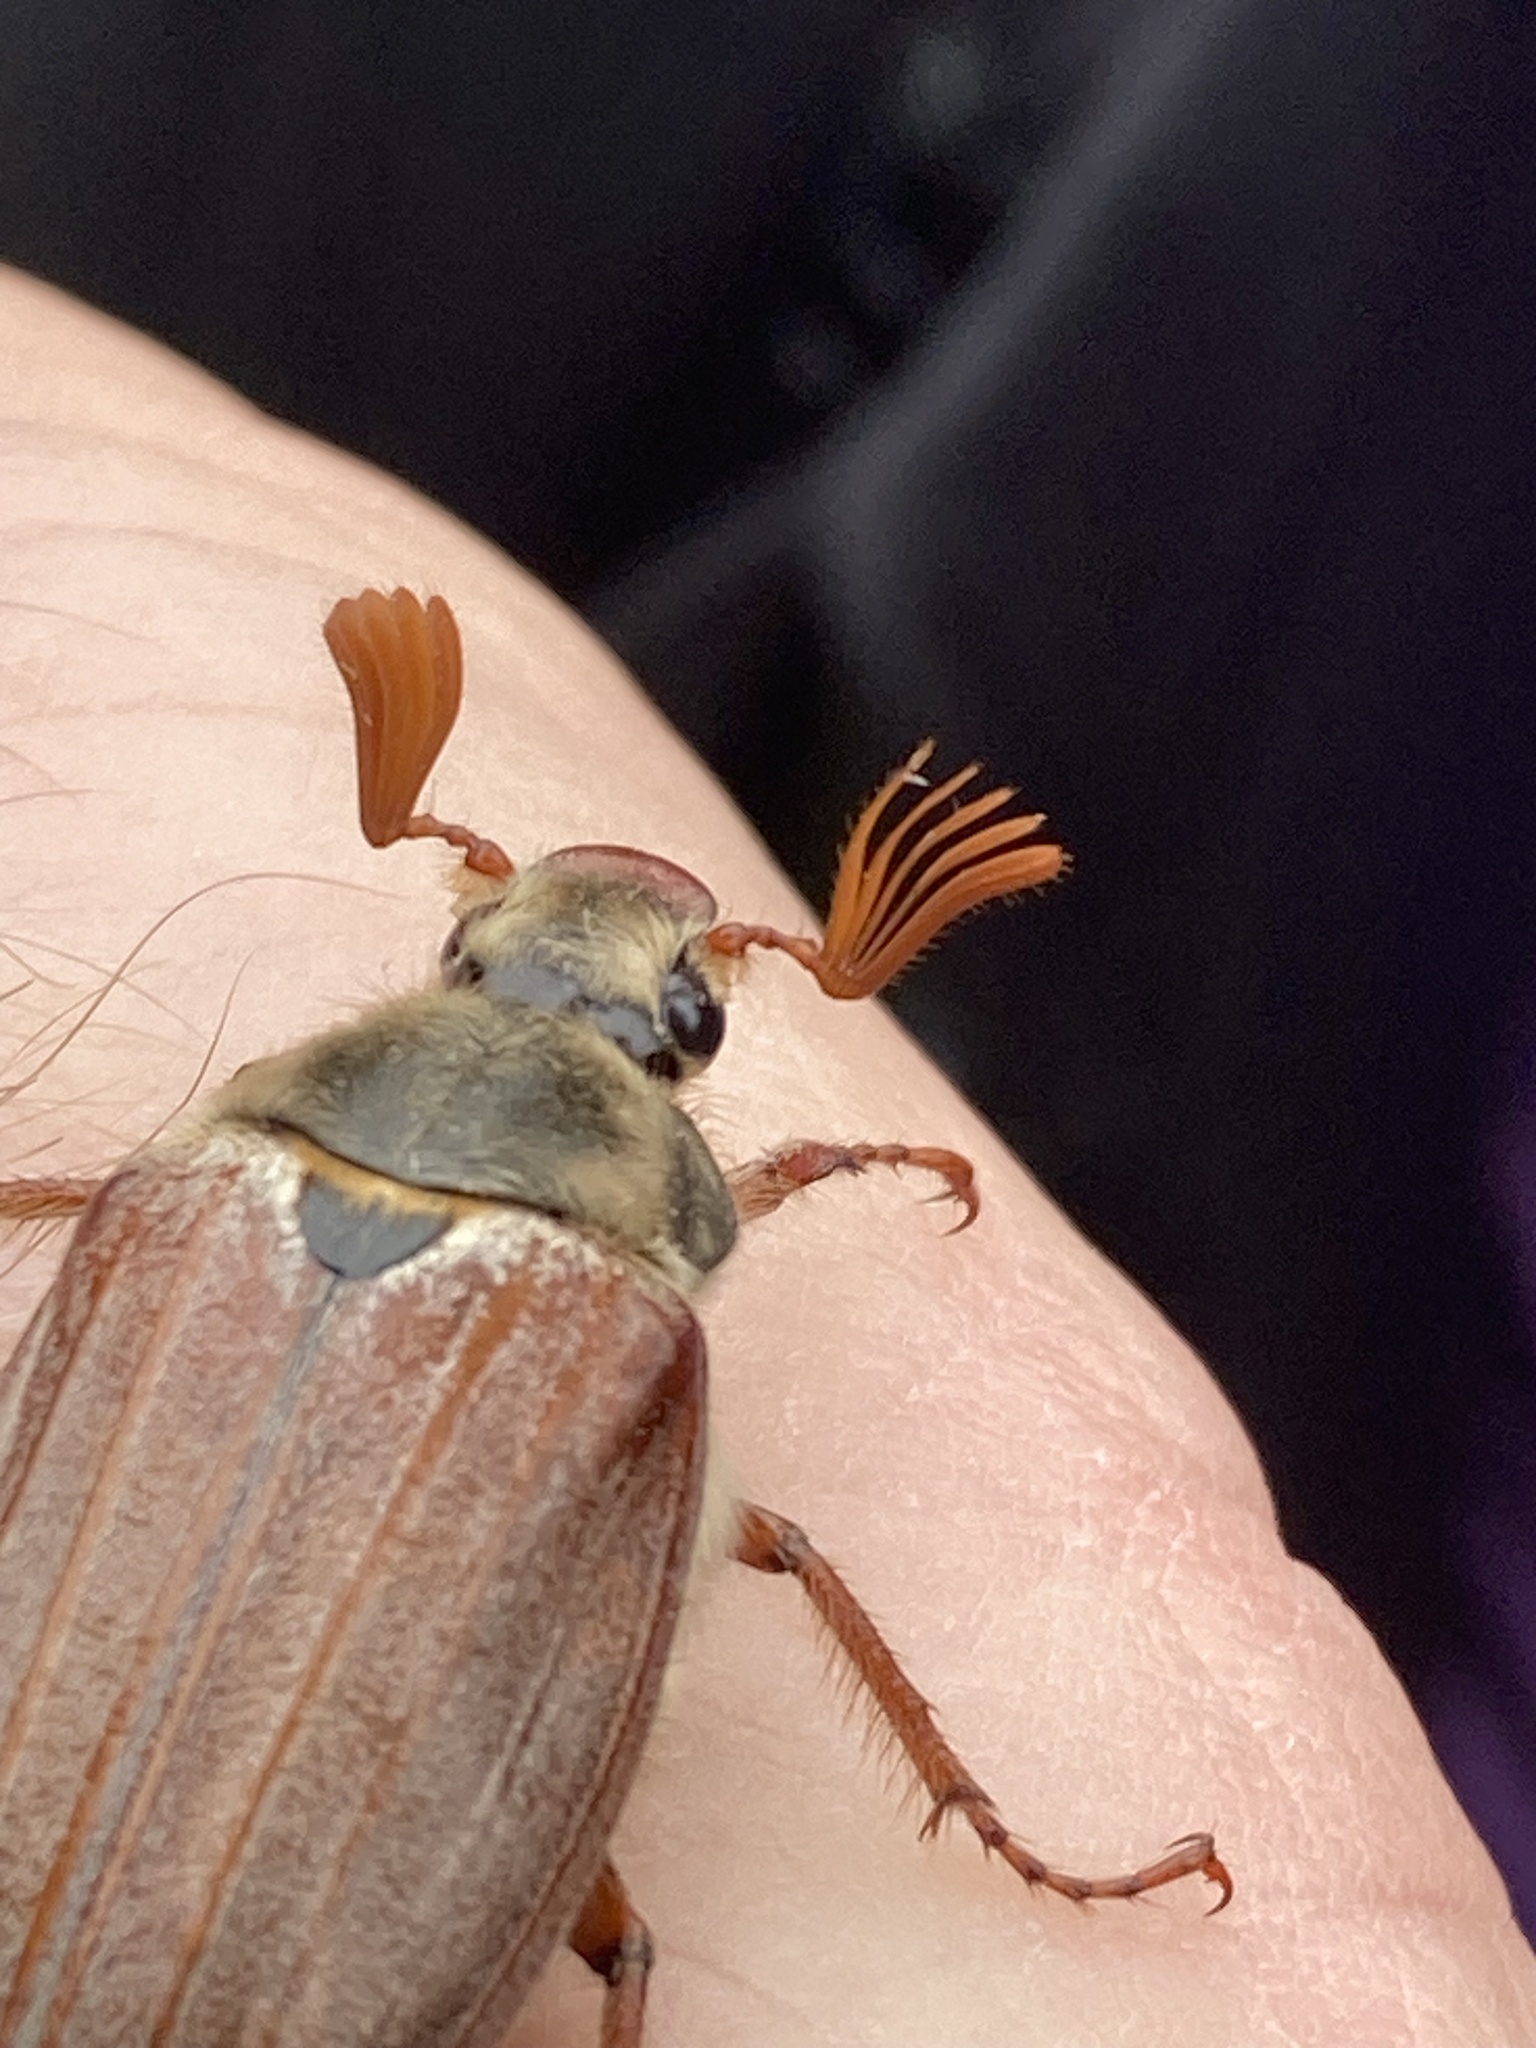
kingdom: Animalia
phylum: Arthropoda
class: Insecta
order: Coleoptera
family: Scarabaeidae
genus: Melolontha
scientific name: Melolontha melolontha
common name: Cockchafer maybeetle
